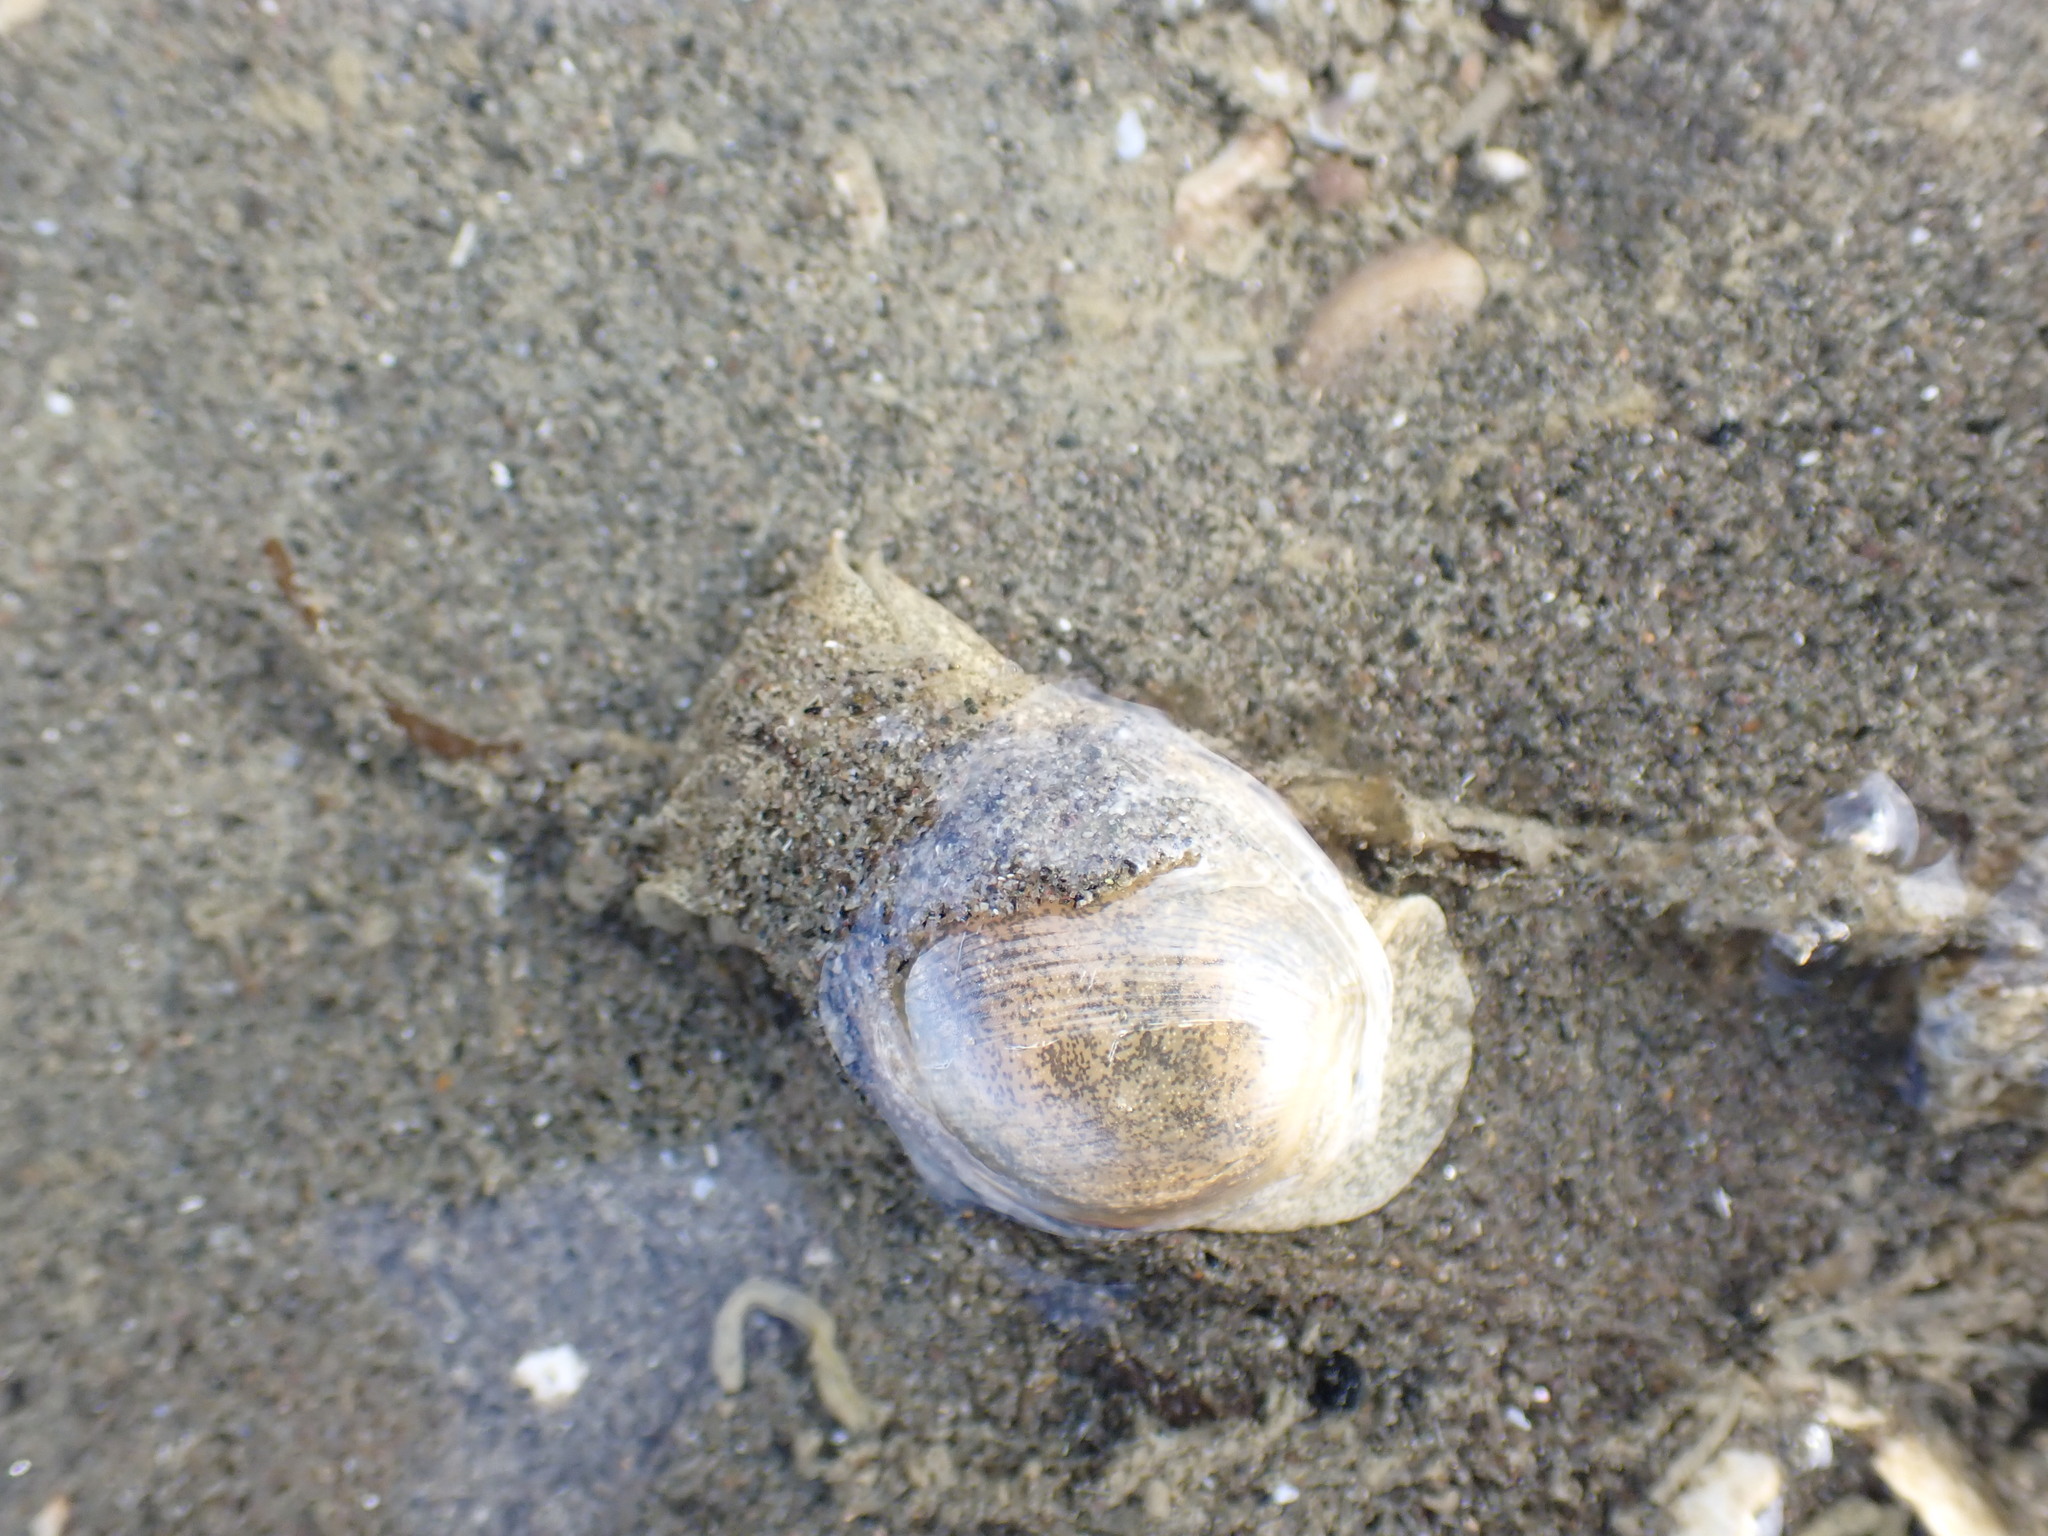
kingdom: Animalia
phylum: Mollusca
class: Gastropoda
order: Cephalaspidea
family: Haminoeidae
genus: Papawera
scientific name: Papawera zelandiae
